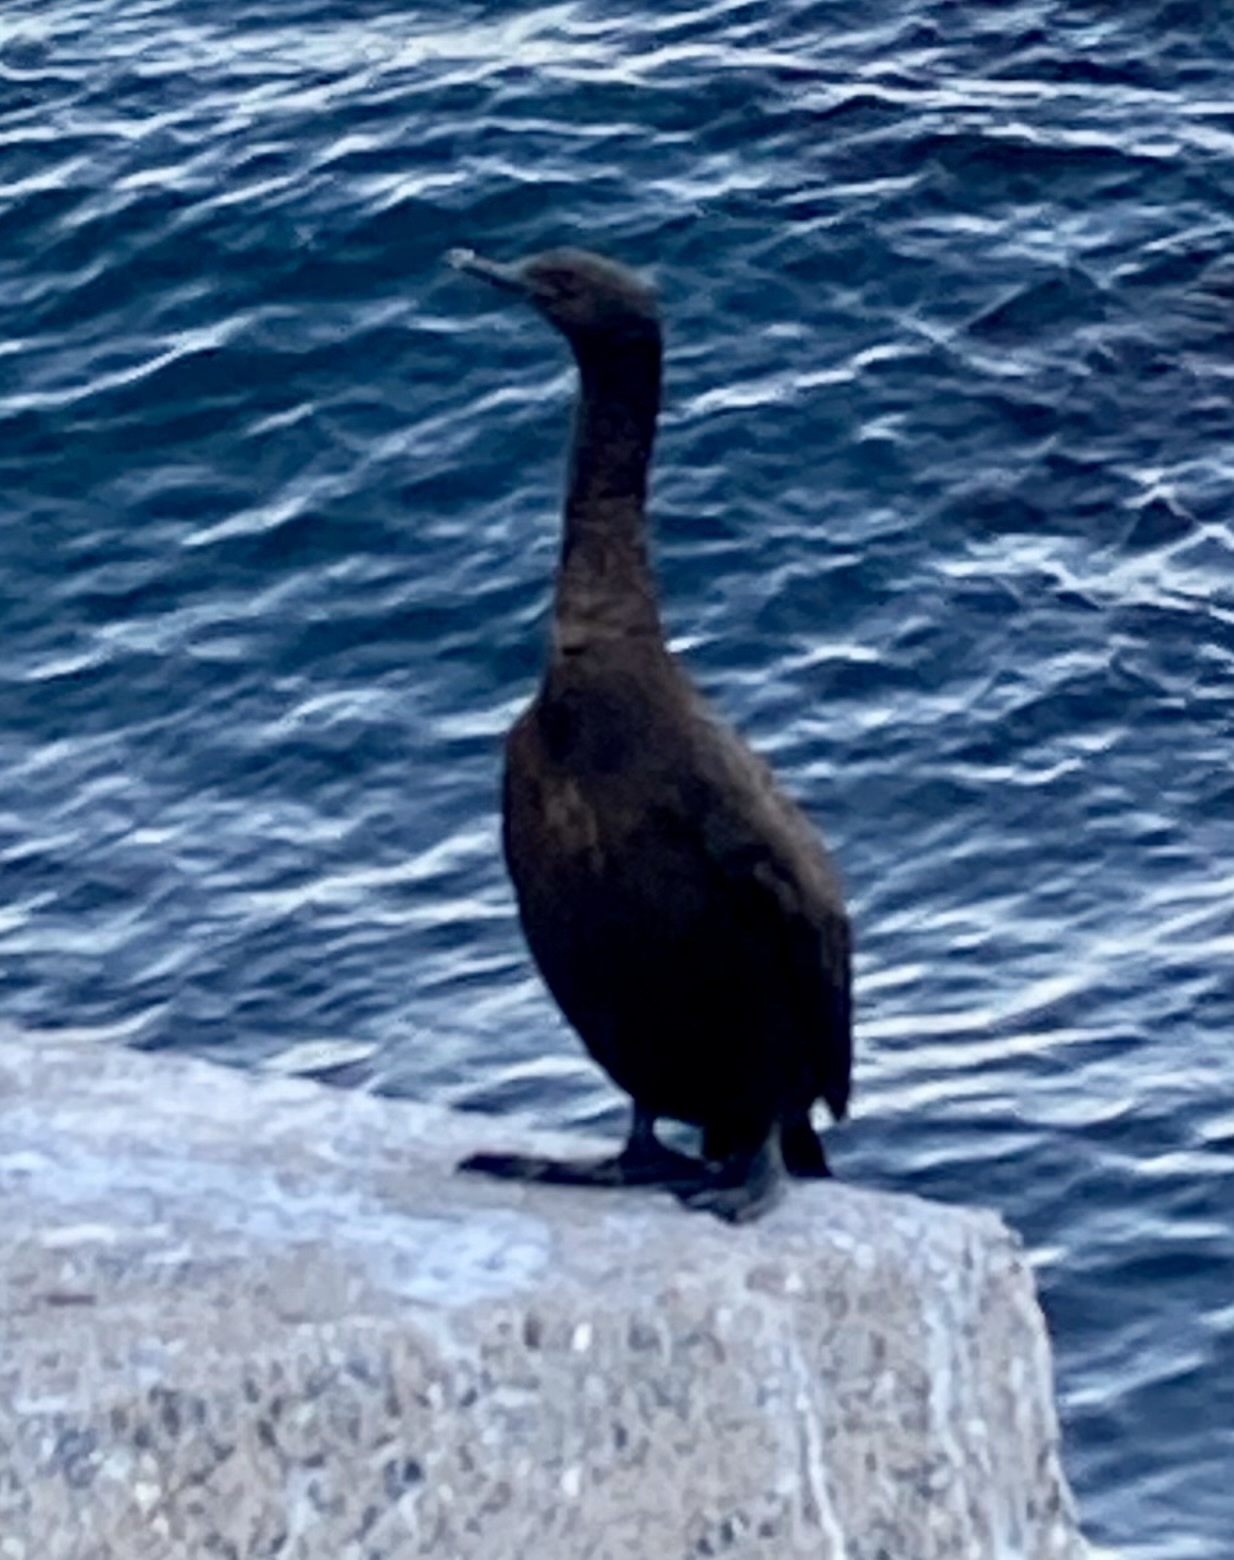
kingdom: Animalia
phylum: Chordata
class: Aves
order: Suliformes
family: Phalacrocoracidae
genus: Phalacrocorax
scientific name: Phalacrocorax pelagicus
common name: Pelagic cormorant
